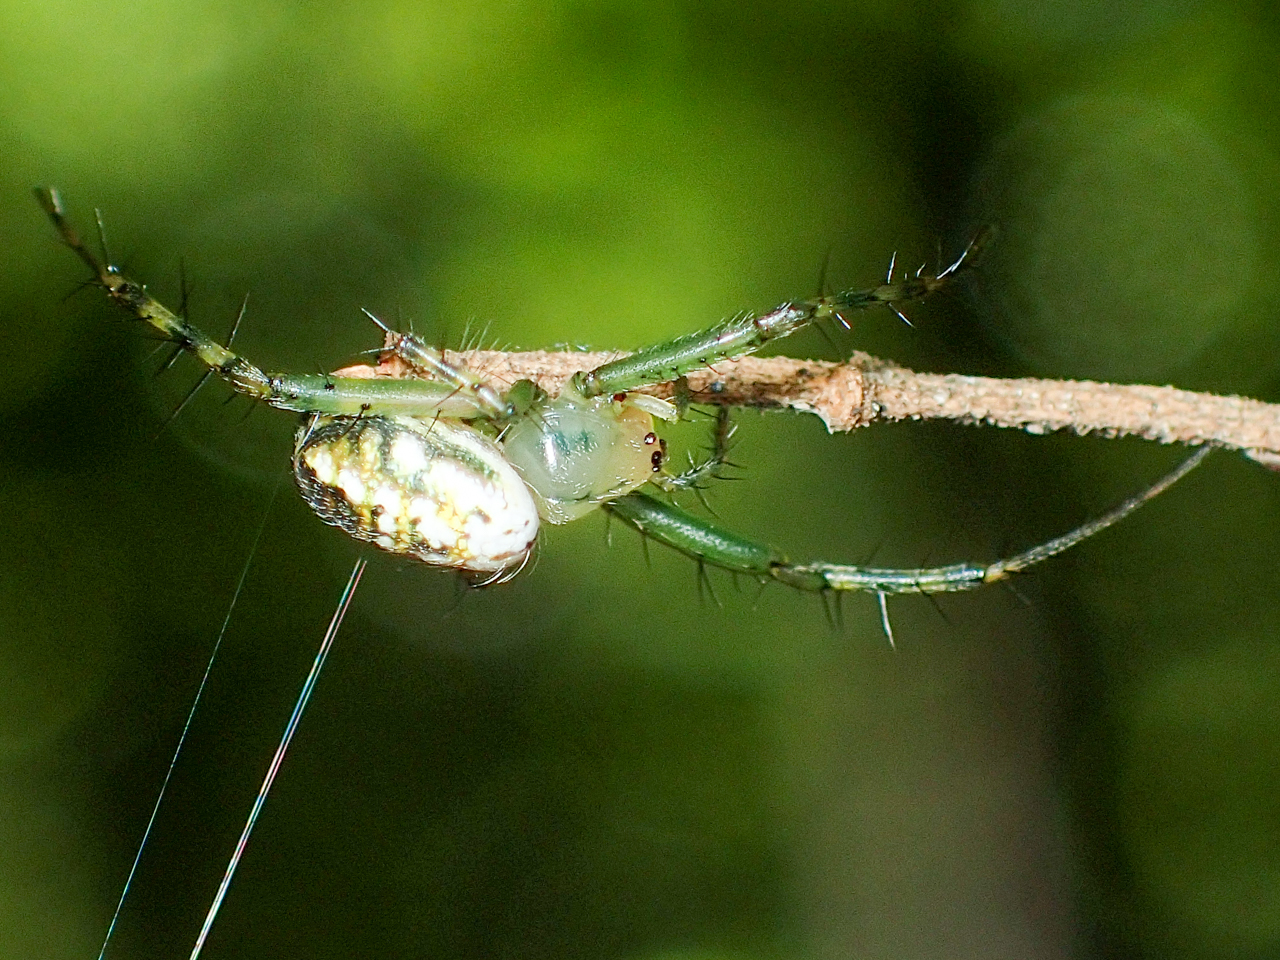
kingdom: Animalia
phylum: Arthropoda
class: Arachnida
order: Araneae
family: Araneidae
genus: Mangora
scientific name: Mangora spiculata
